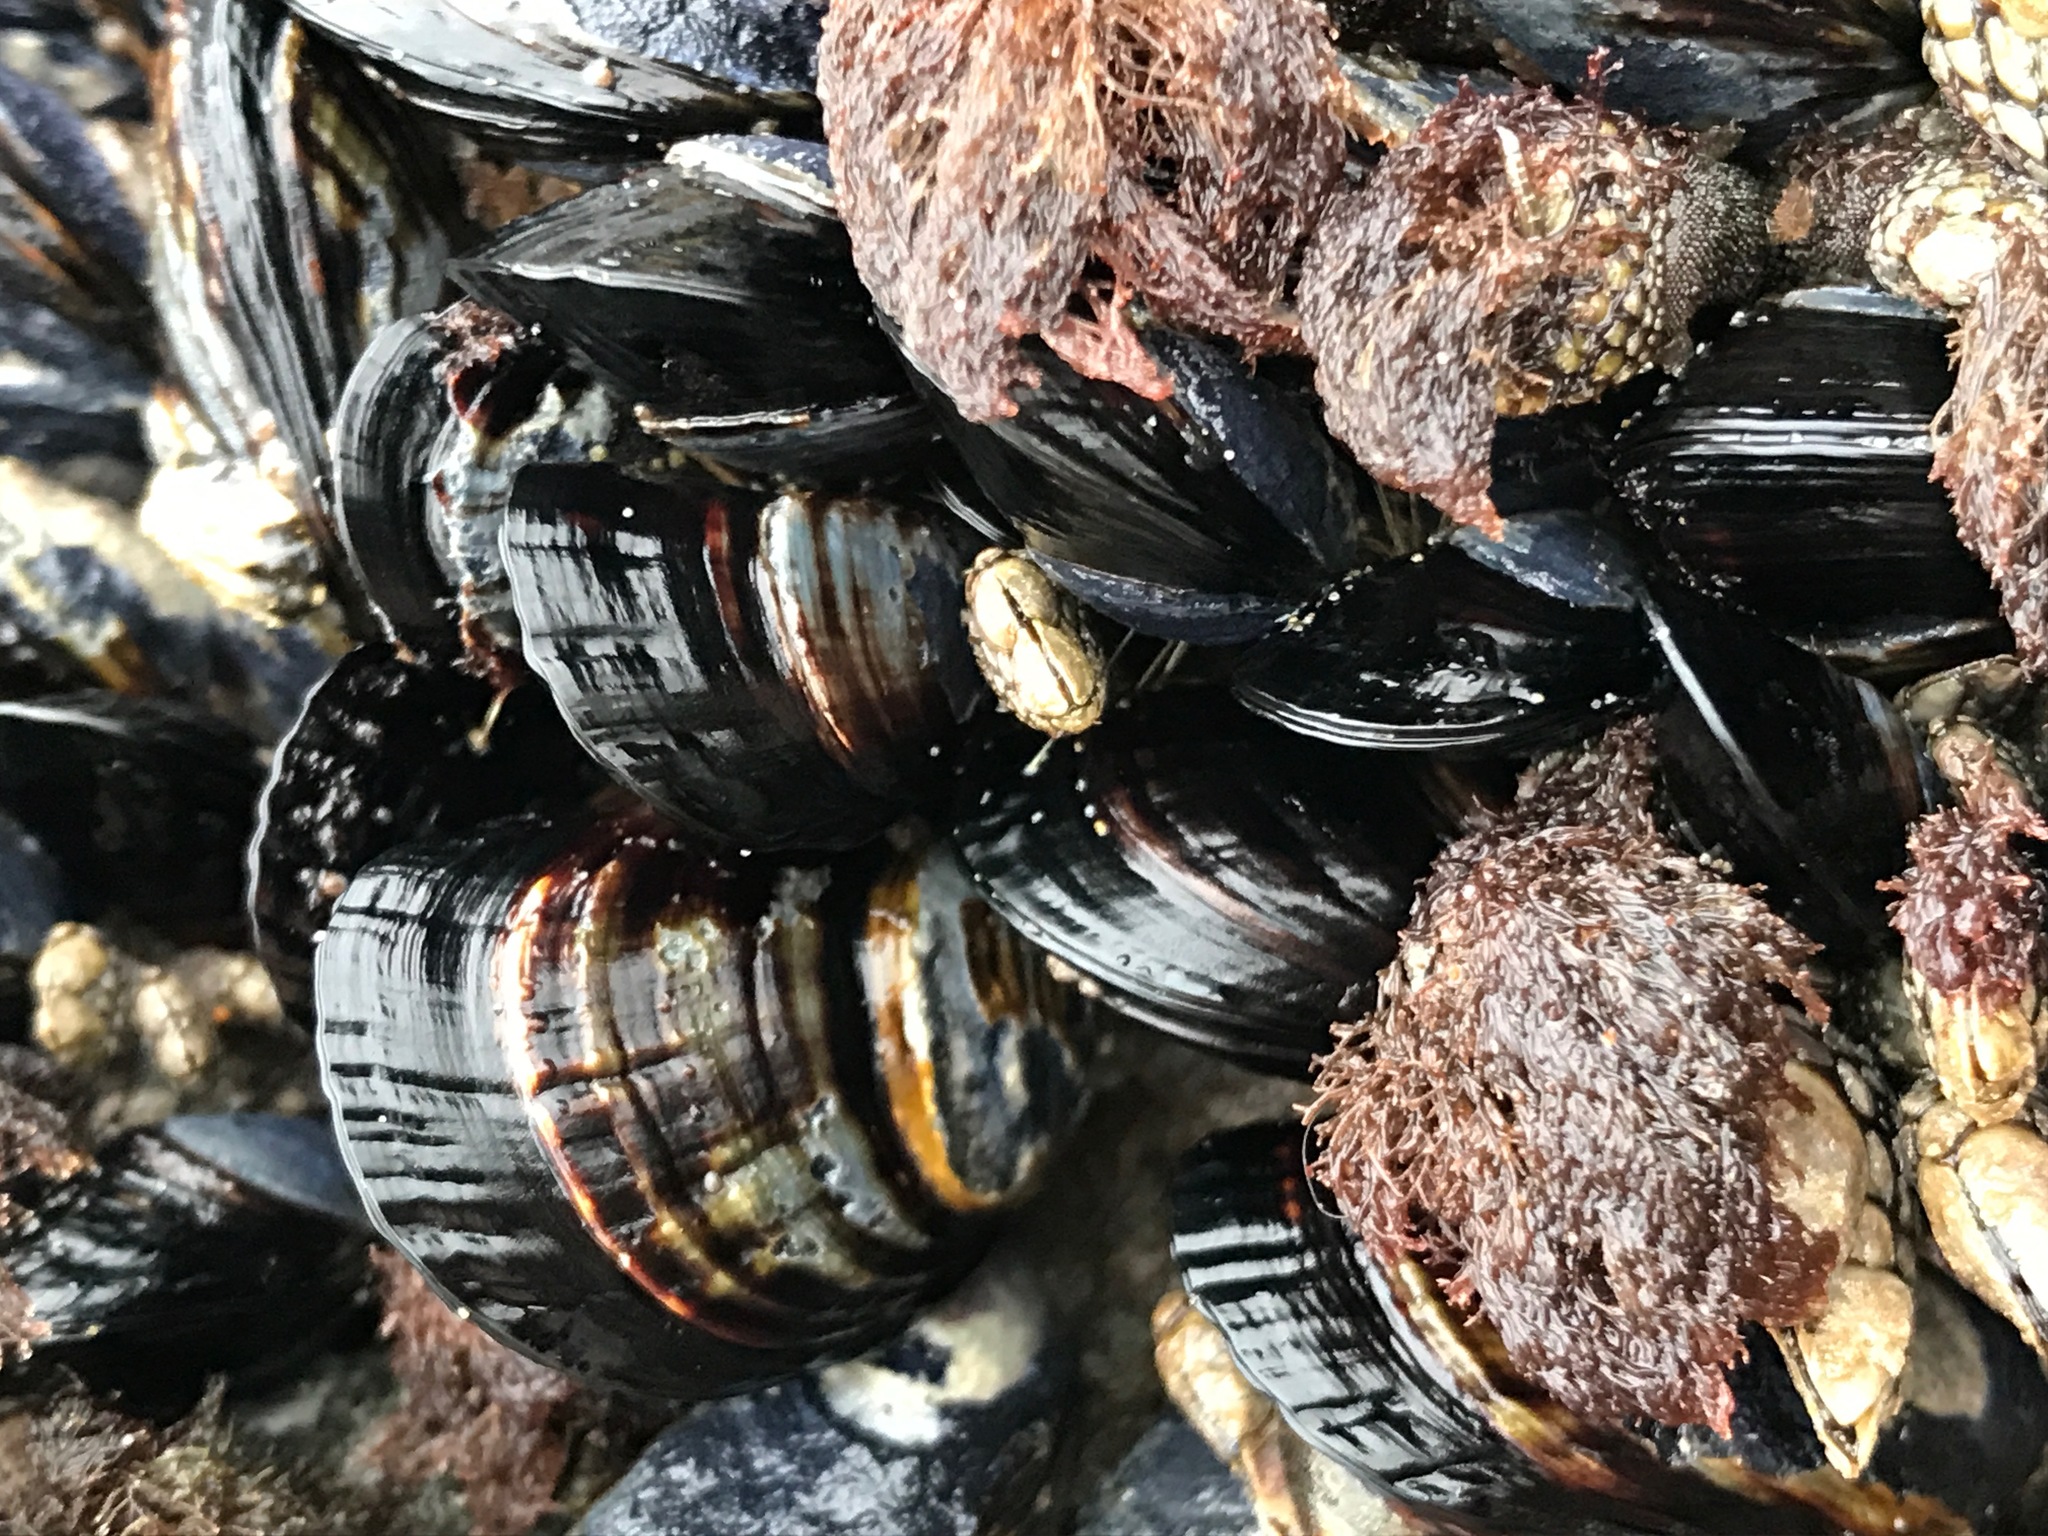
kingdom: Animalia
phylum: Mollusca
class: Bivalvia
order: Mytilida
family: Mytilidae
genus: Mytilus
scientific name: Mytilus californianus
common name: California mussel
